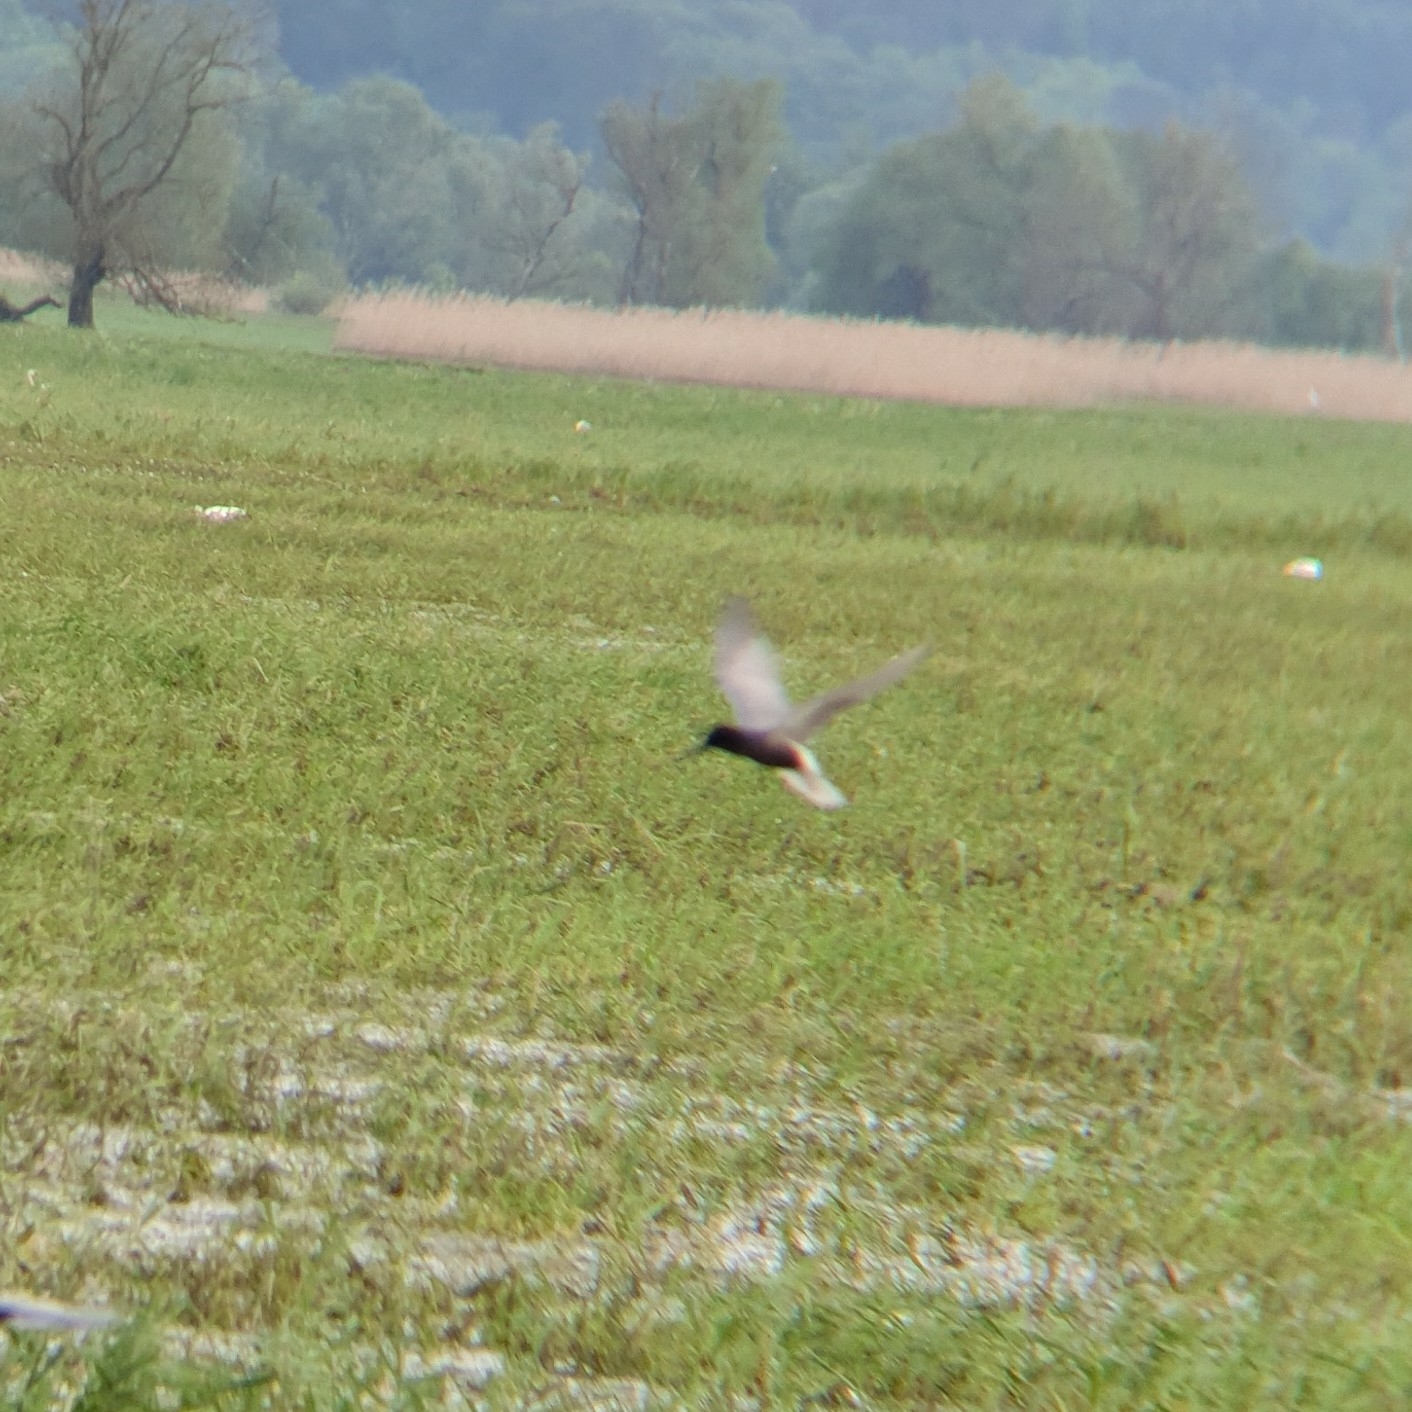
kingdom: Animalia
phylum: Chordata
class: Aves
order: Charadriiformes
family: Laridae
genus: Chlidonias
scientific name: Chlidonias niger
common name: Black tern
